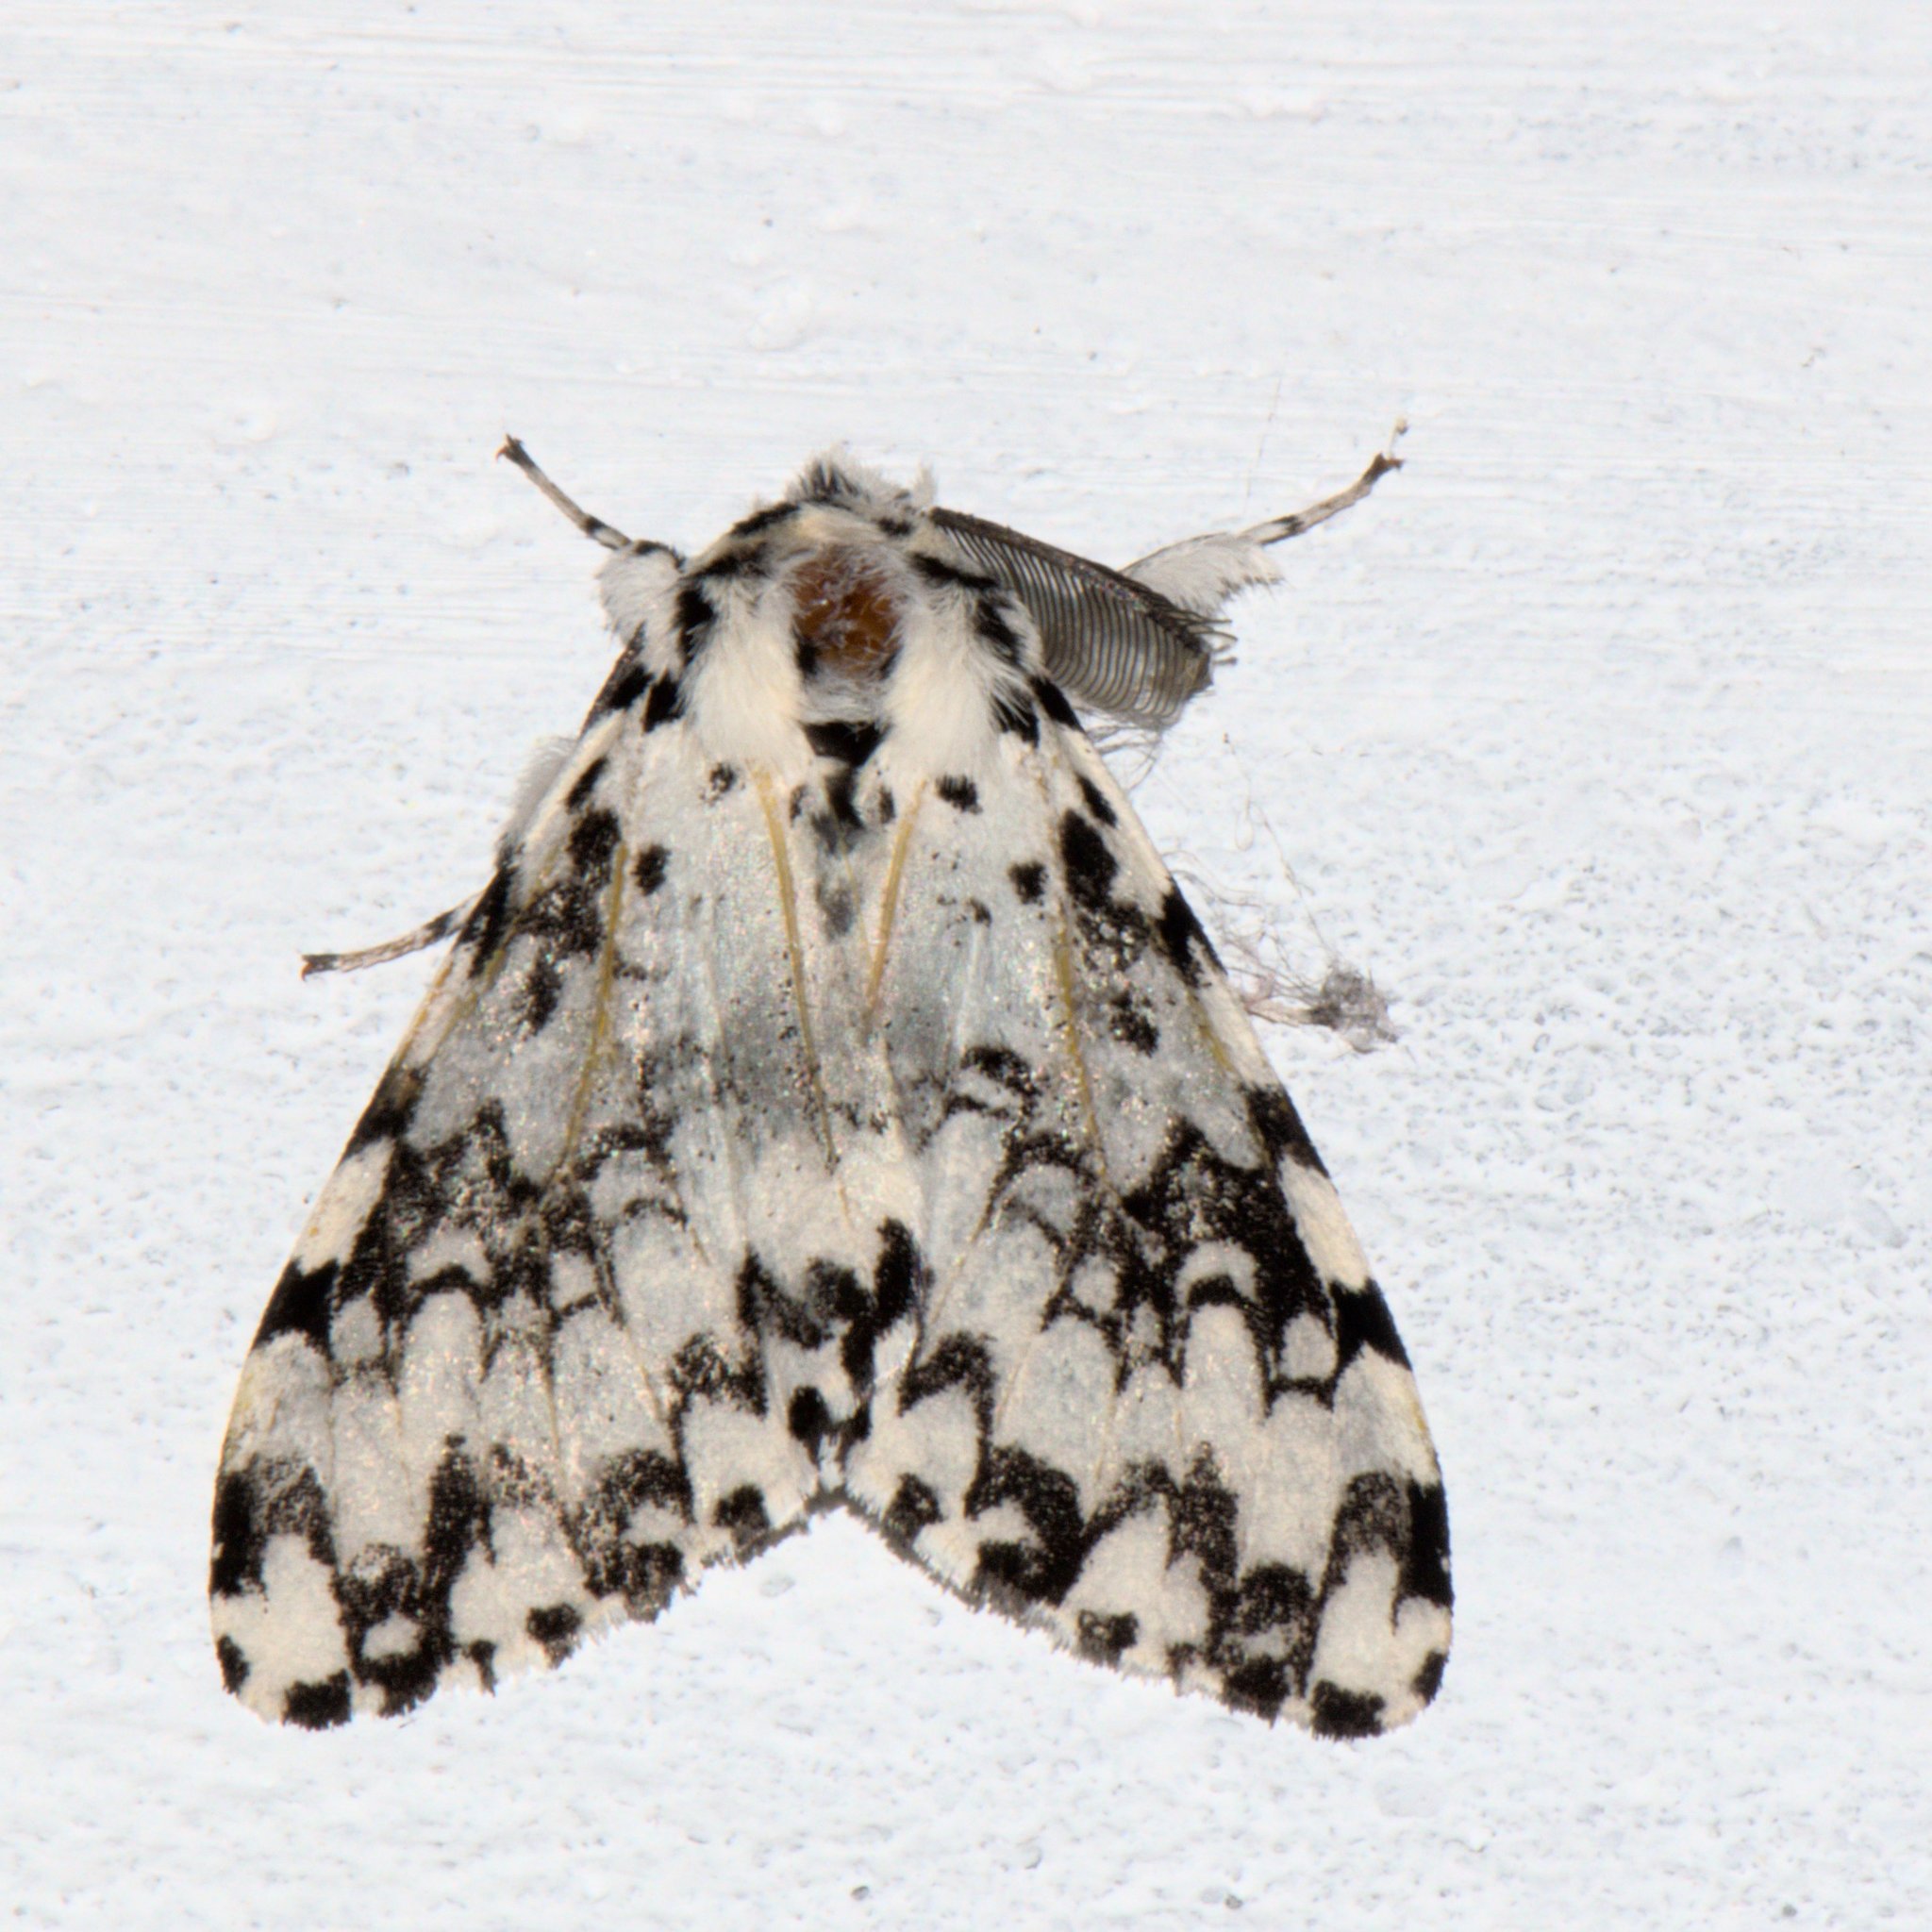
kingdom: Animalia
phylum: Arthropoda
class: Insecta
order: Lepidoptera
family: Erebidae
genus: Lymantria
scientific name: Lymantria concolor
